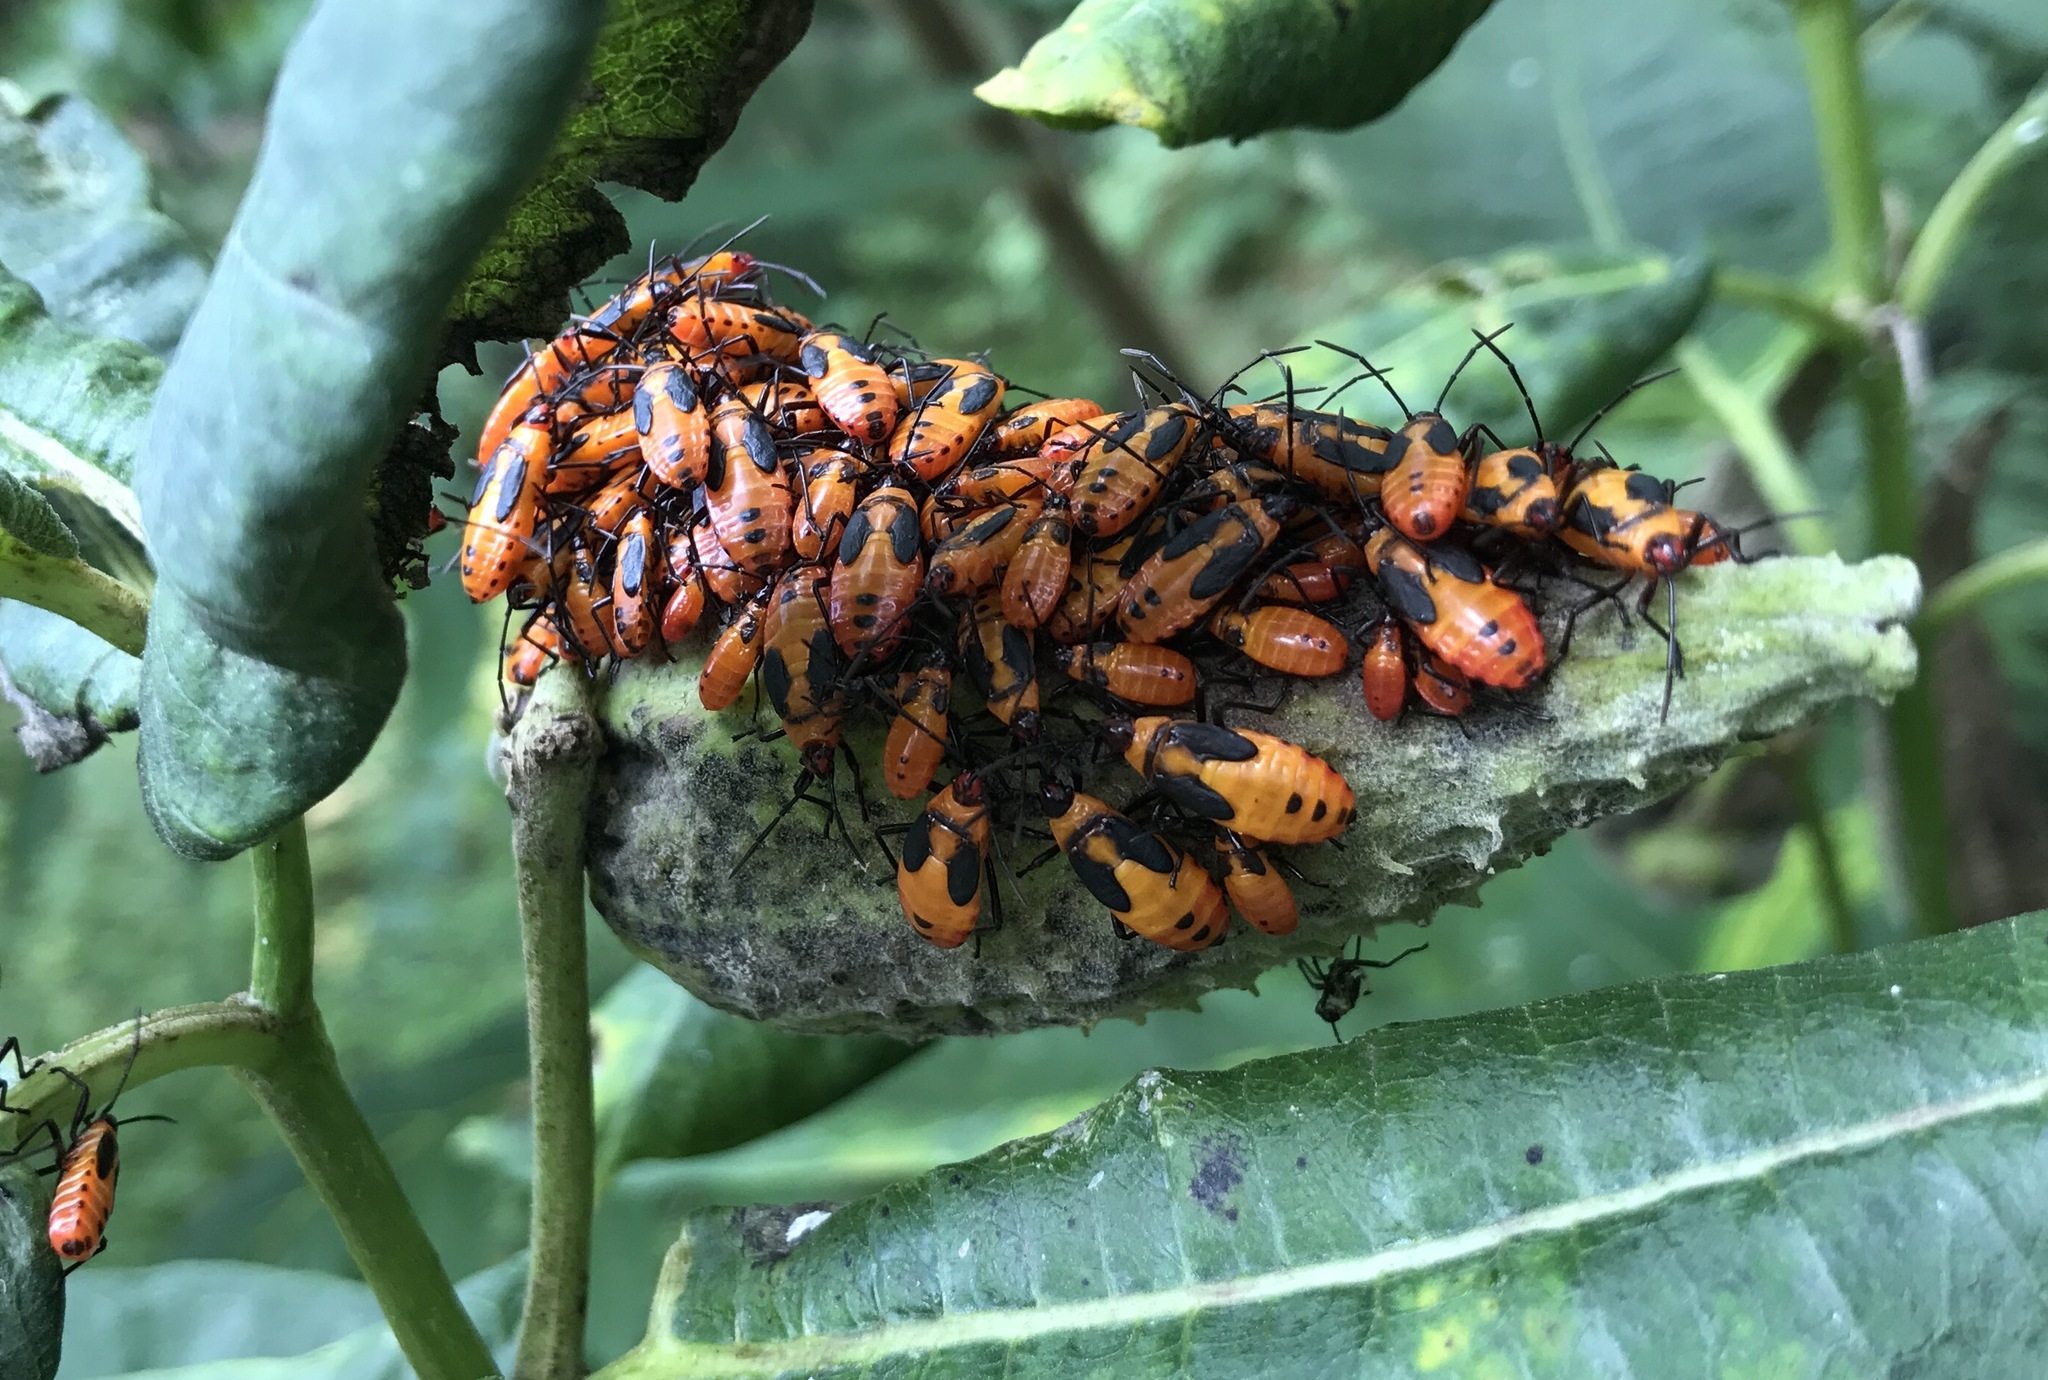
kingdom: Animalia
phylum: Arthropoda
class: Insecta
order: Hemiptera
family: Lygaeidae
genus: Oncopeltus
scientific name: Oncopeltus fasciatus
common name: Large milkweed bug
